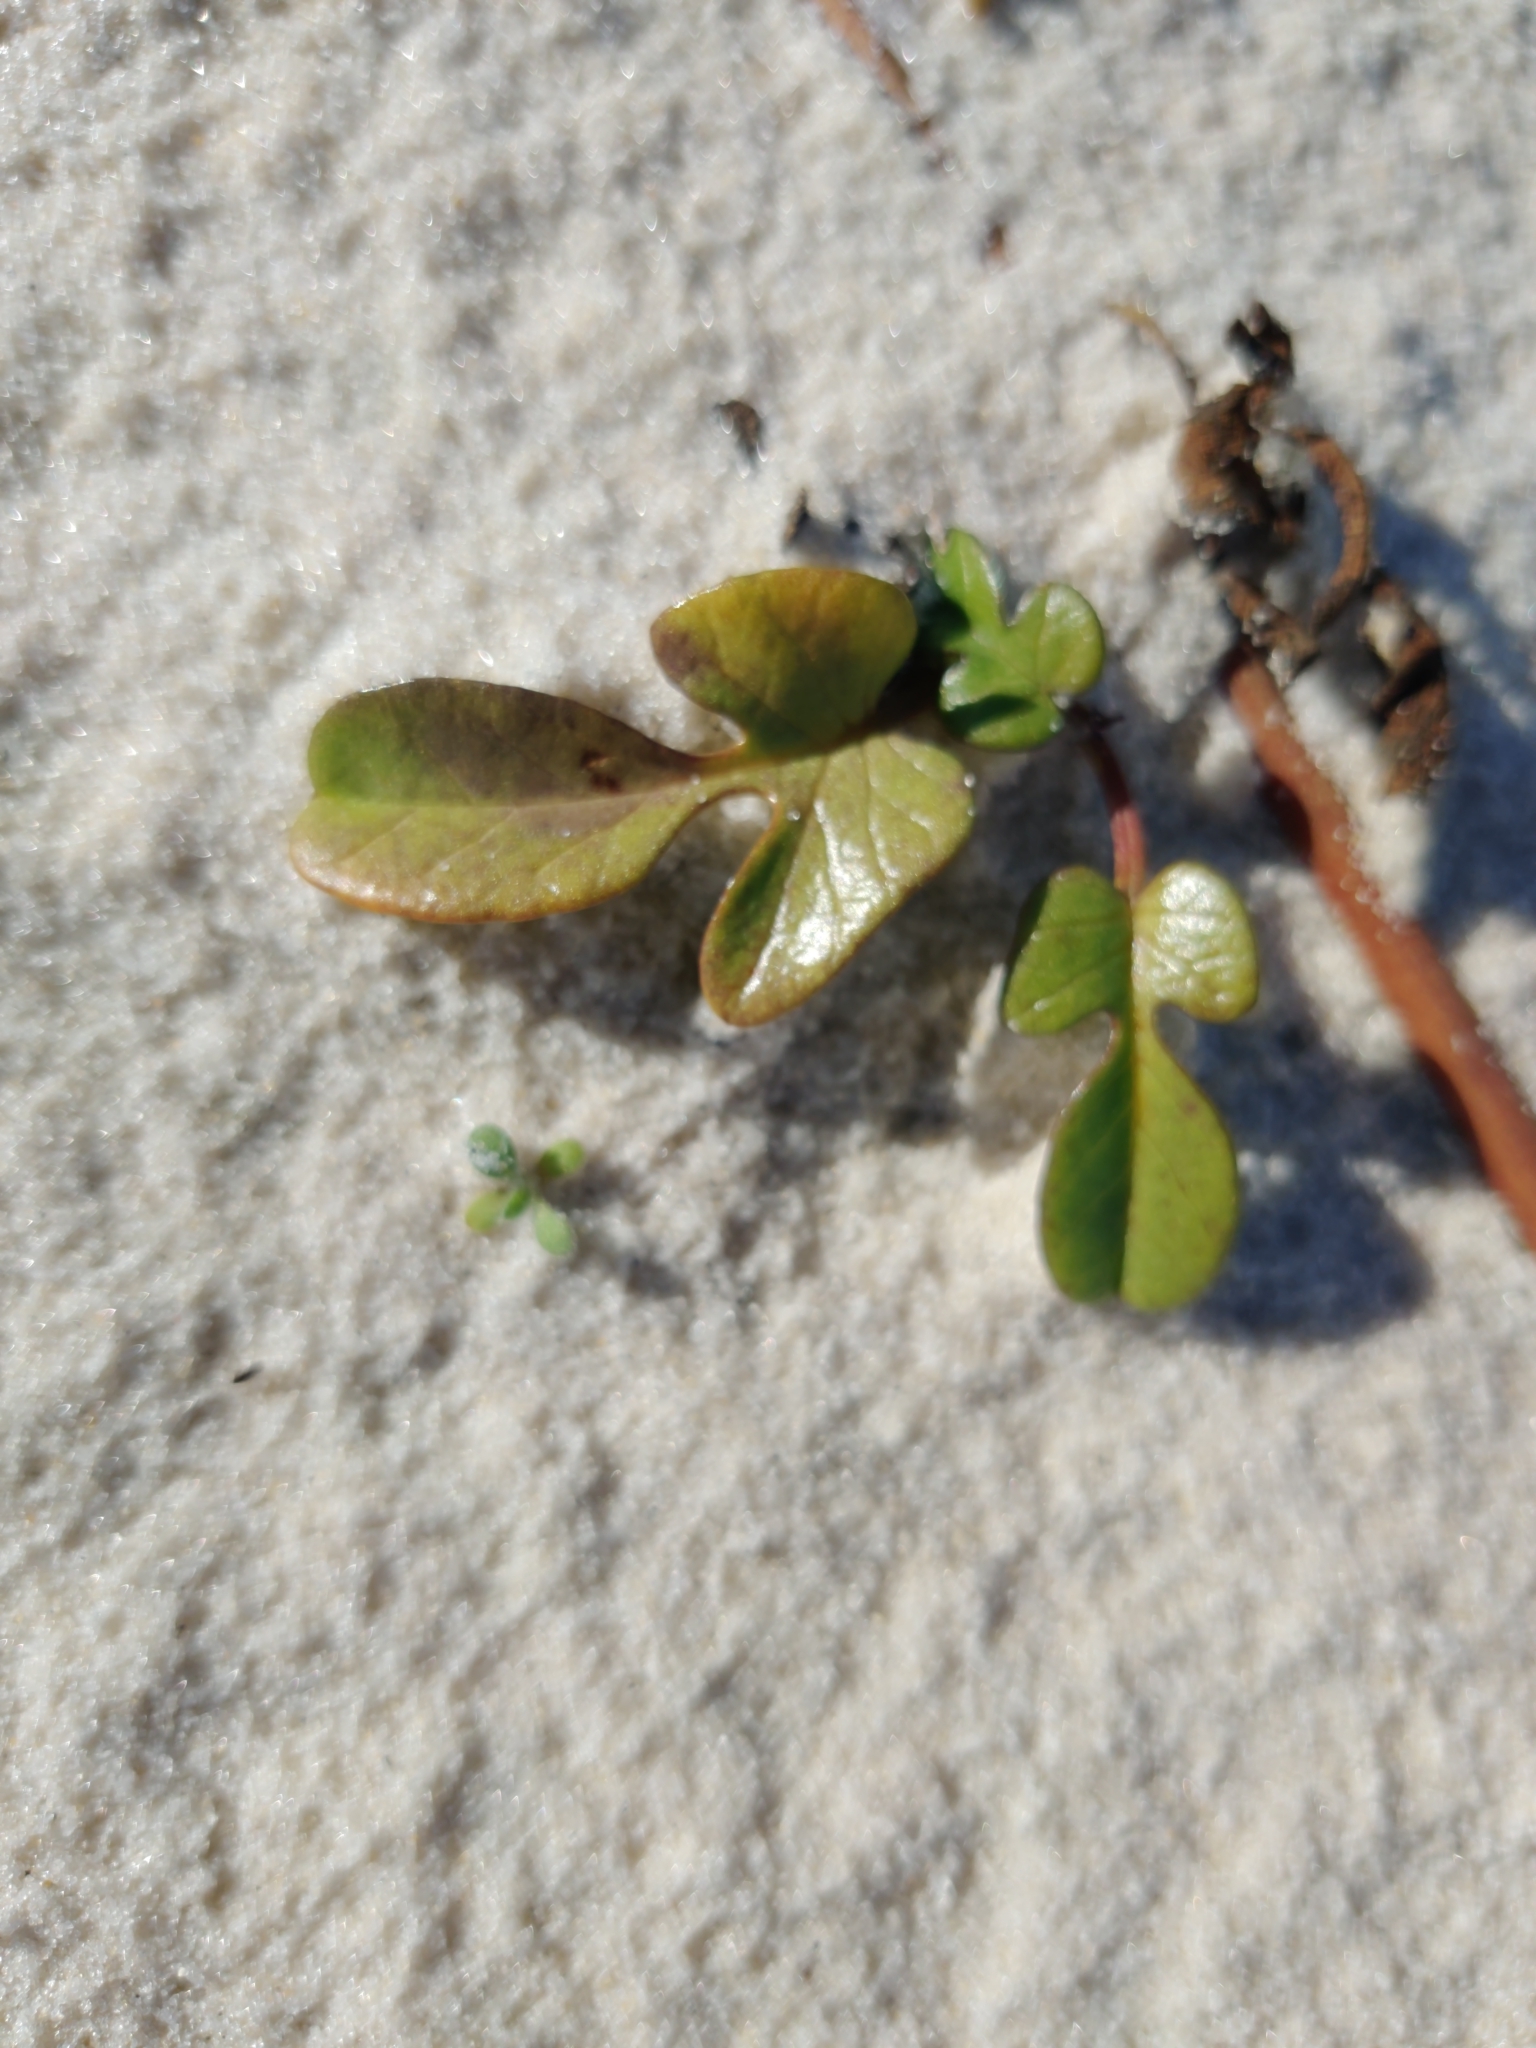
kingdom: Plantae
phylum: Tracheophyta
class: Magnoliopsida
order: Solanales
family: Convolvulaceae
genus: Ipomoea
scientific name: Ipomoea imperati
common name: Fiddle-leaf morning-glory
